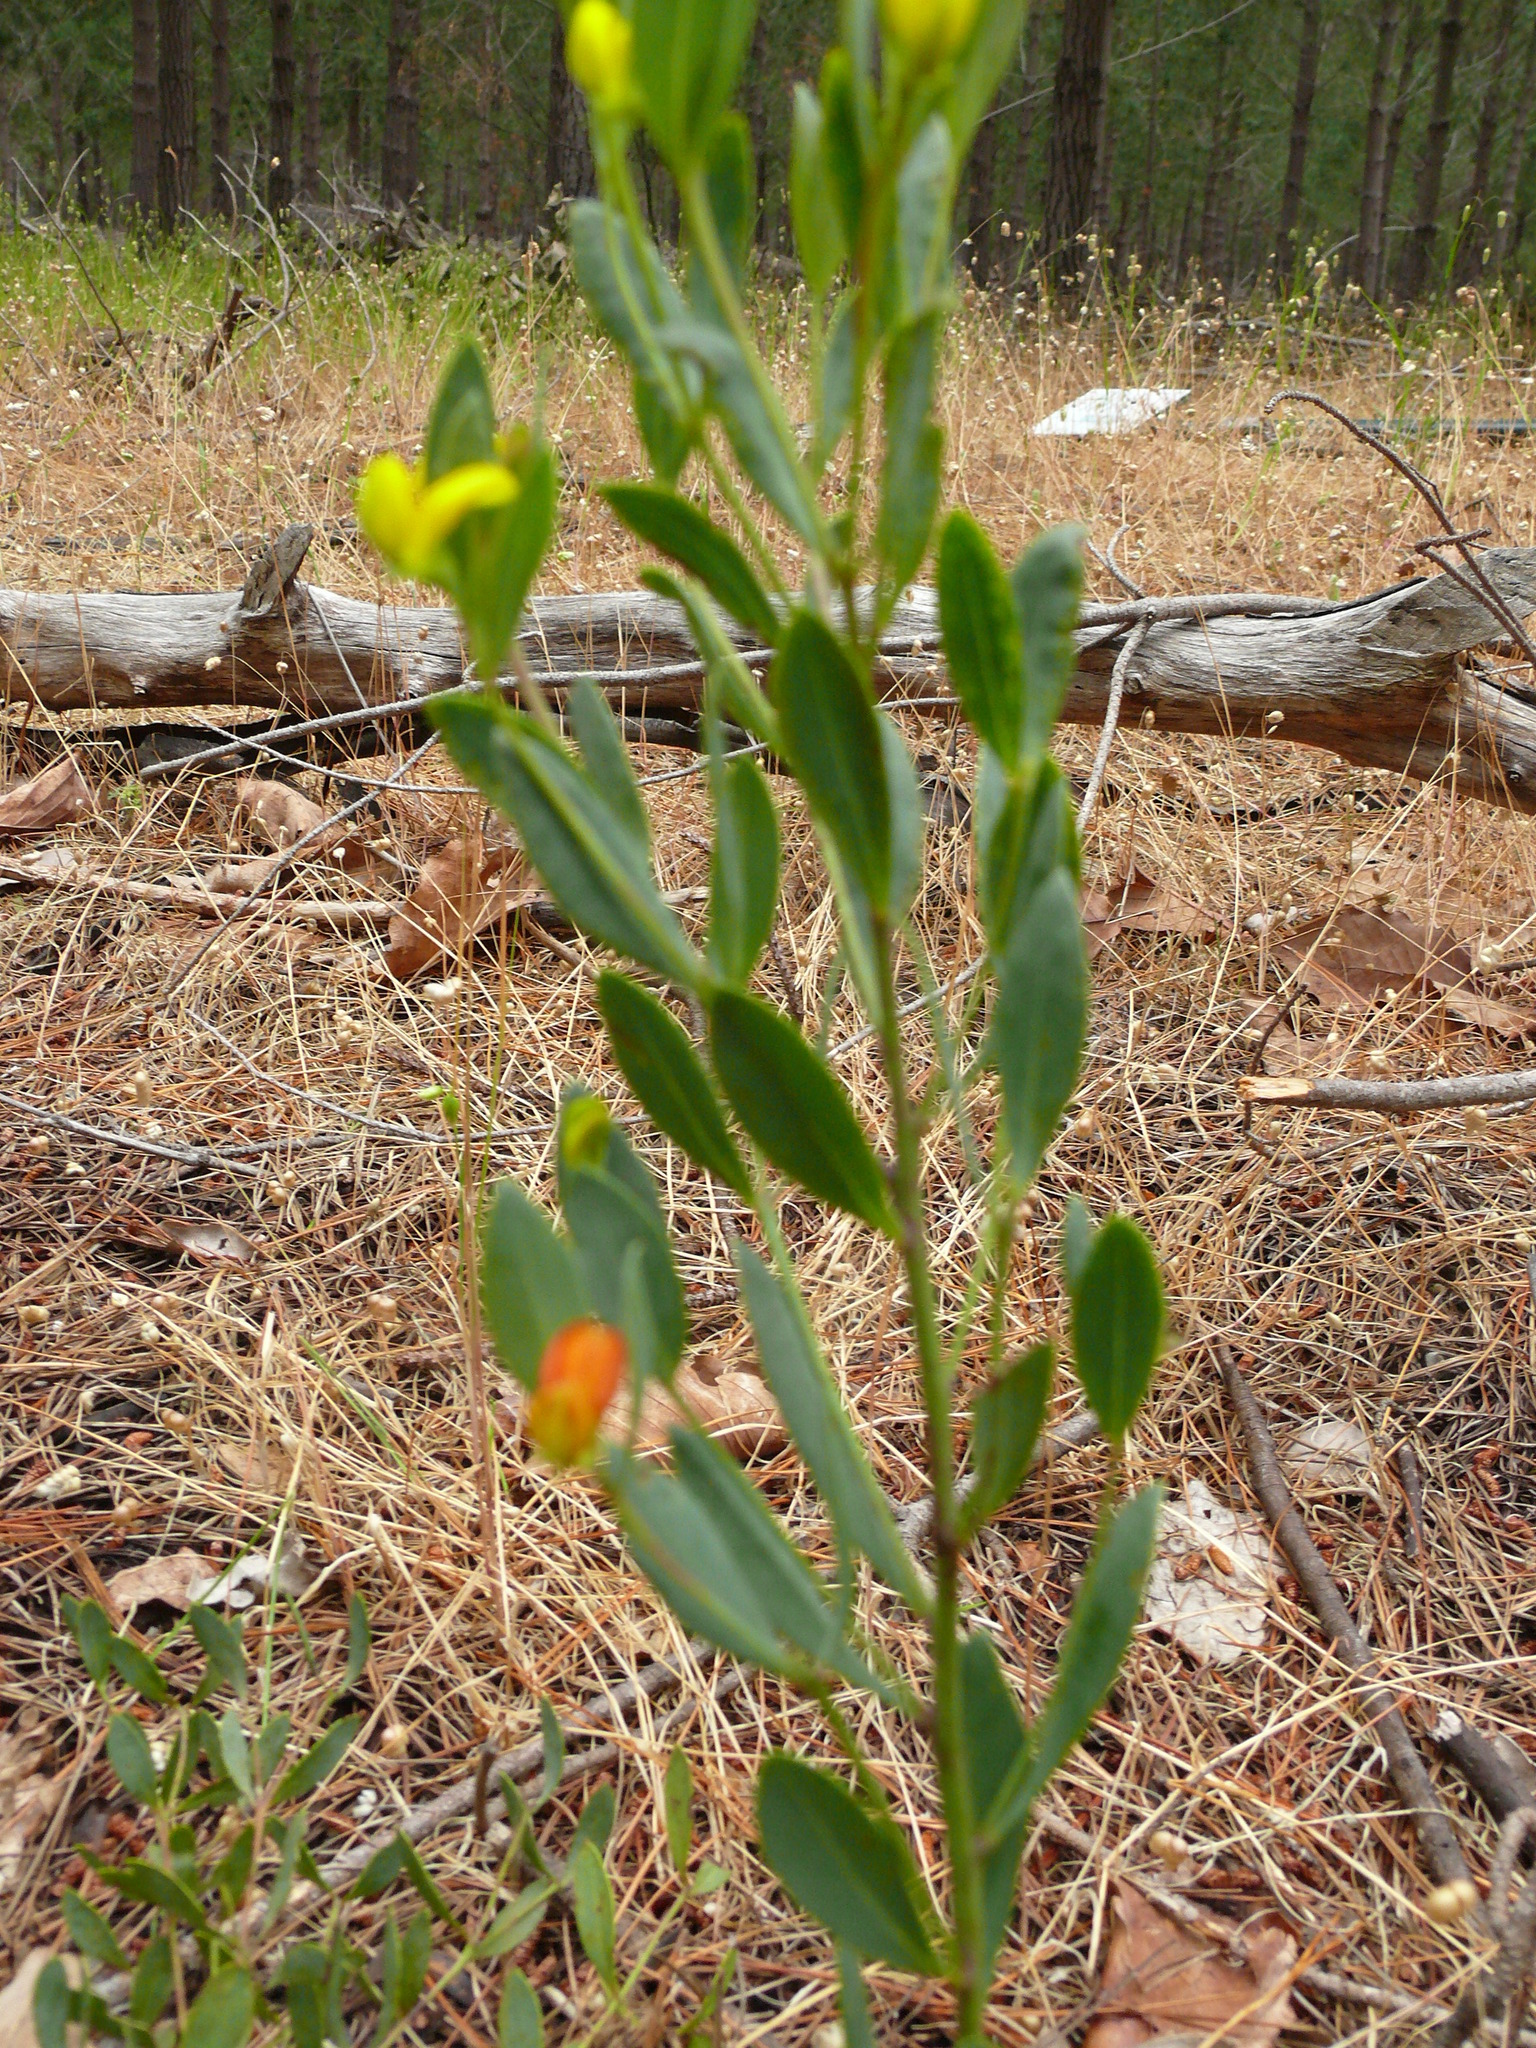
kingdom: Plantae
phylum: Tracheophyta
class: Magnoliopsida
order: Fabales
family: Fabaceae
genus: Rafnia
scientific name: Rafnia angulata
